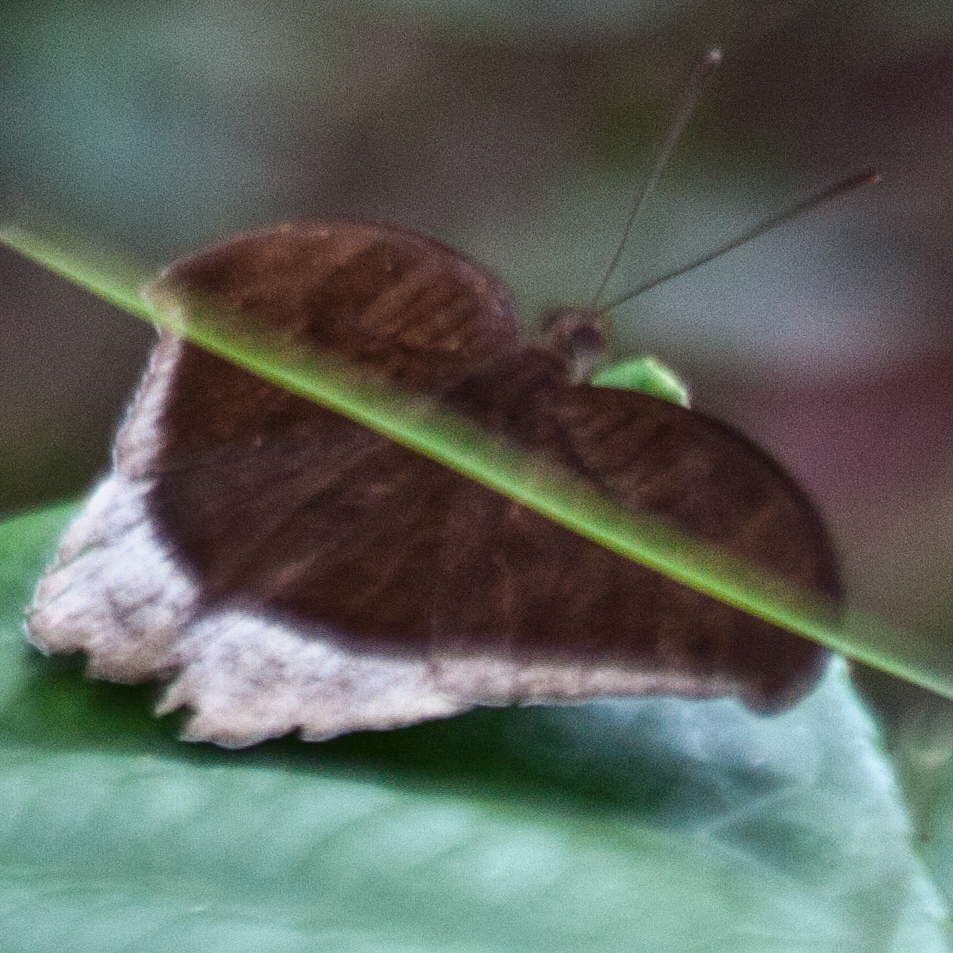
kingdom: Animalia
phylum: Arthropoda
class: Insecta
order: Lepidoptera
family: Nymphalidae
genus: Tanaecia
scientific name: Tanaecia lepidea
